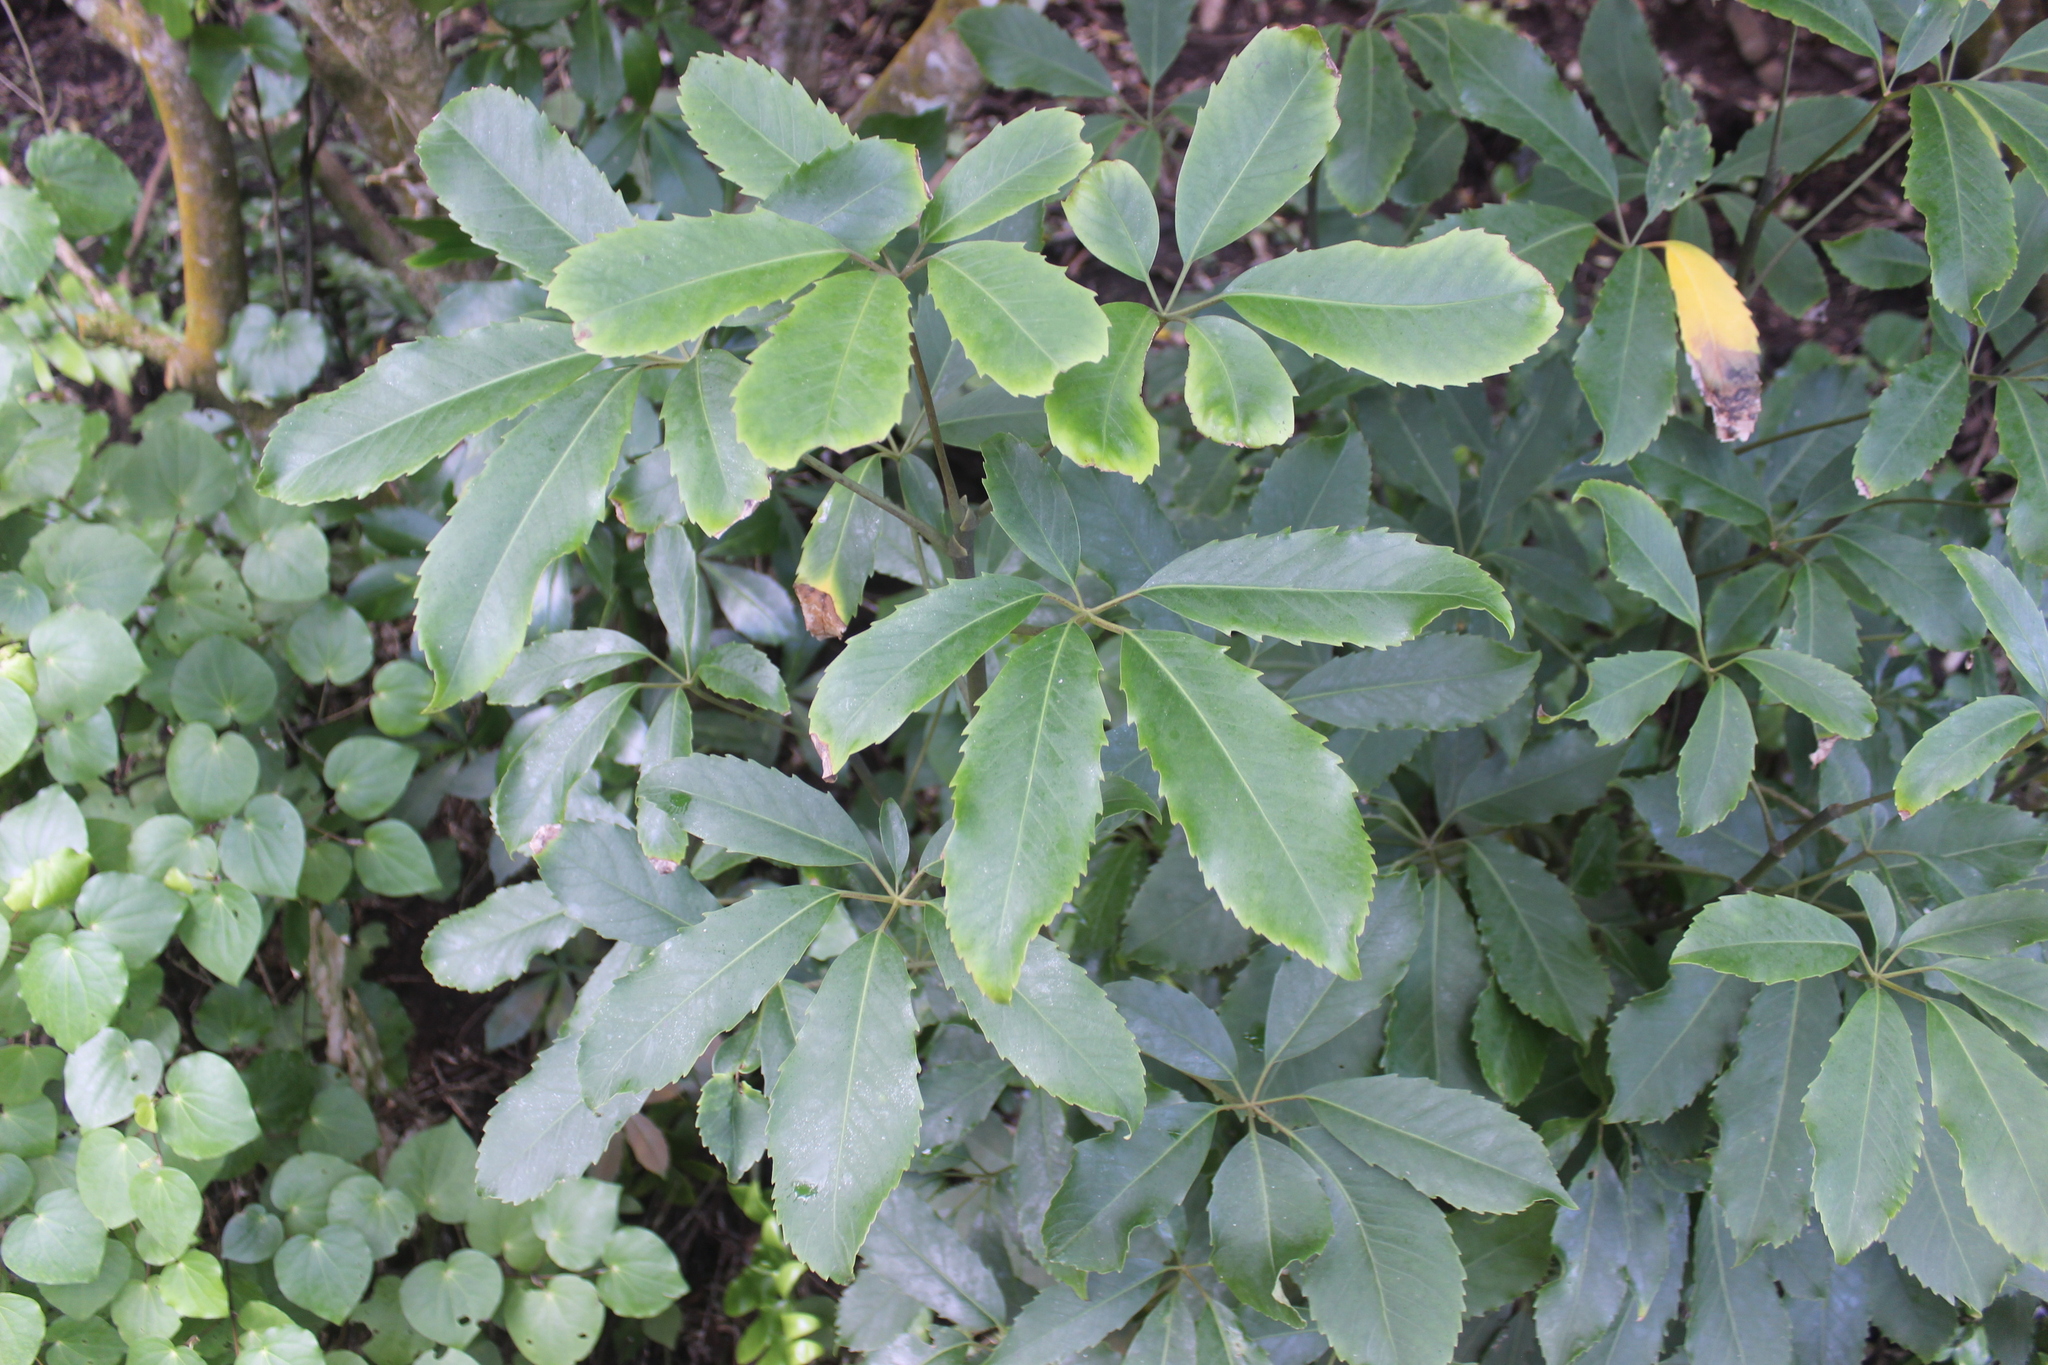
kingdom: Plantae
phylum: Tracheophyta
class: Magnoliopsida
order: Apiales
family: Araliaceae
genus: Neopanax
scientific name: Neopanax arboreus
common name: Five-fingers
